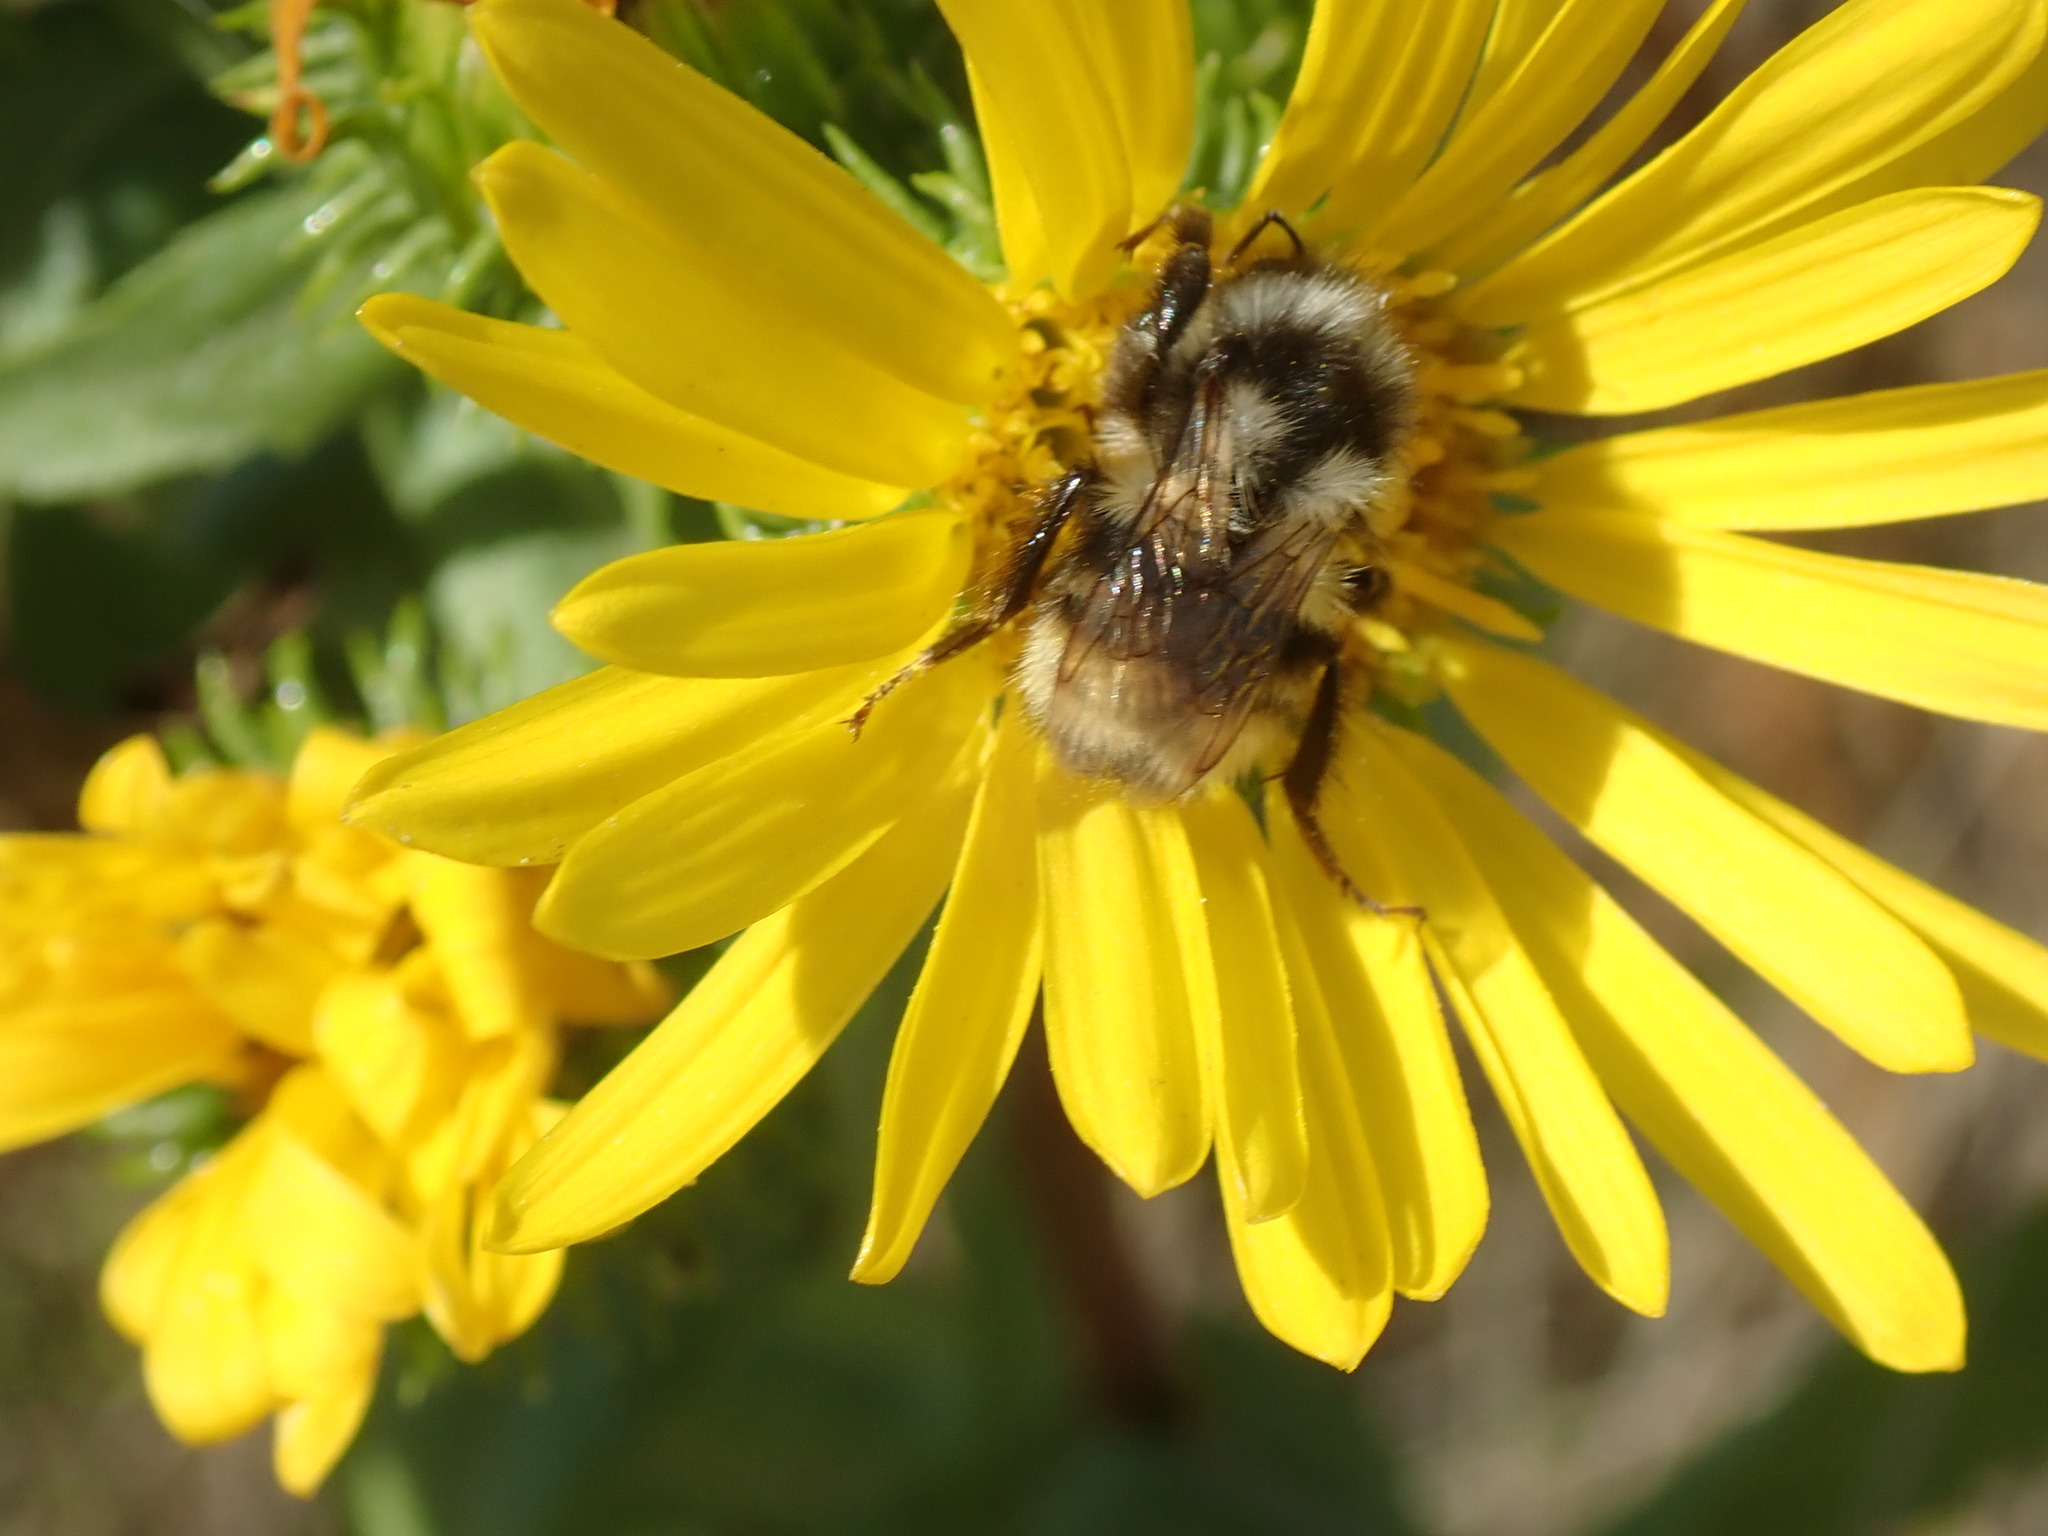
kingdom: Animalia
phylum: Arthropoda
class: Insecta
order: Hymenoptera
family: Apidae
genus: Bombus
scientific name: Bombus vancouverensis
